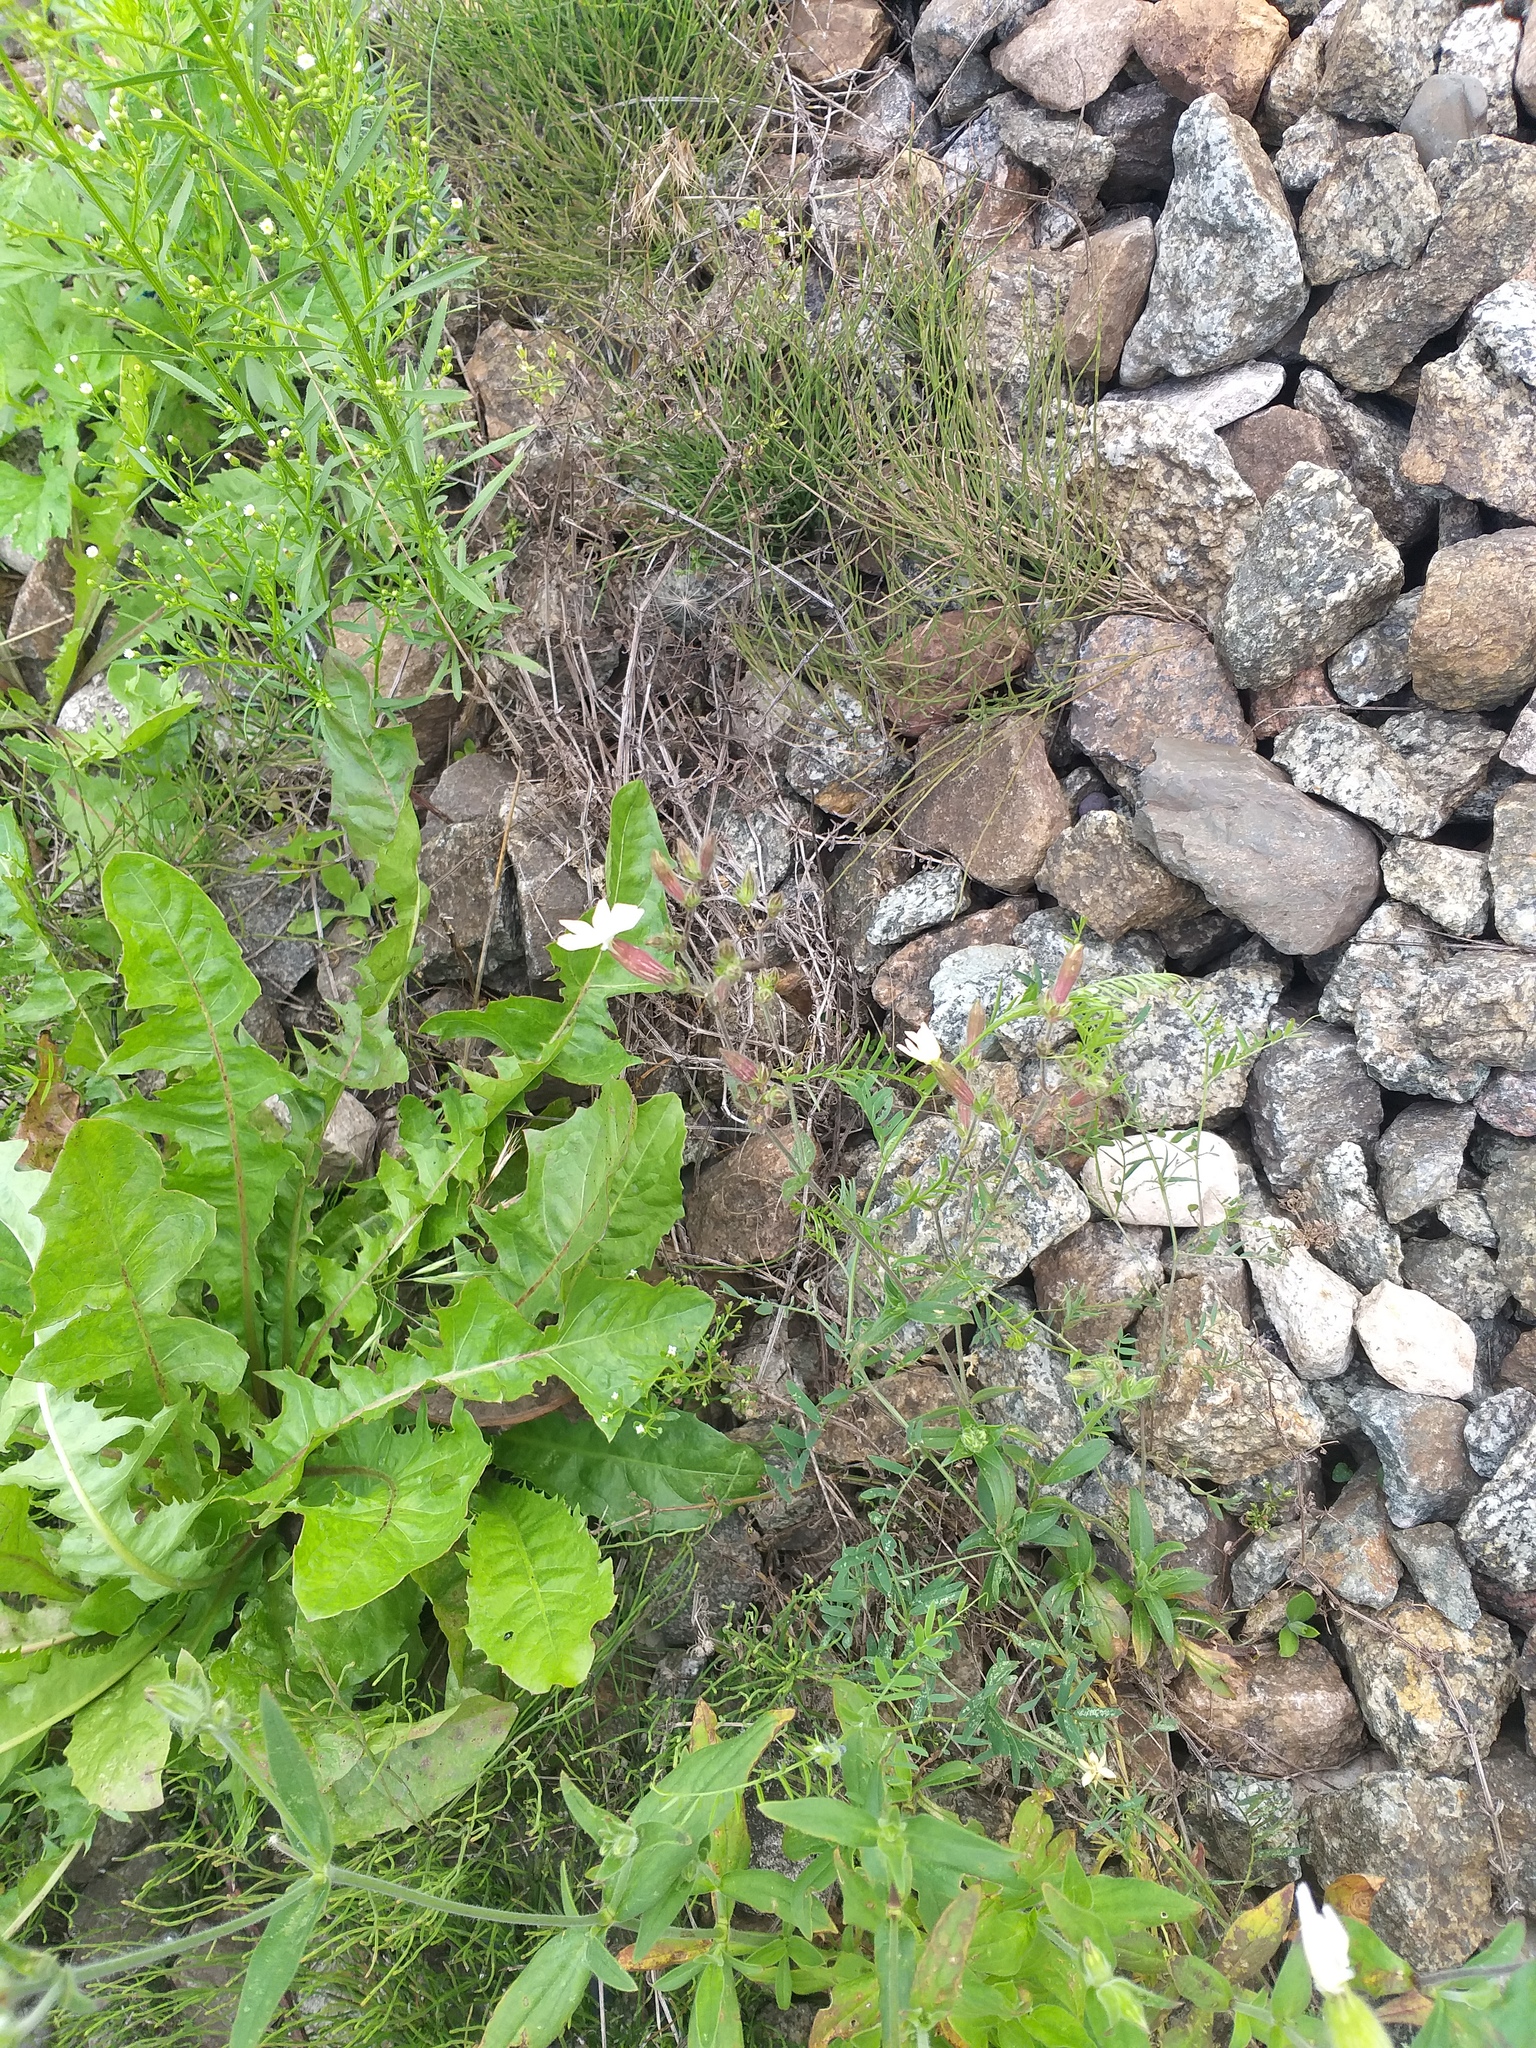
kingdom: Plantae
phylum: Tracheophyta
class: Magnoliopsida
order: Caryophyllales
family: Caryophyllaceae
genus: Silene
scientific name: Silene latifolia
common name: White campion
